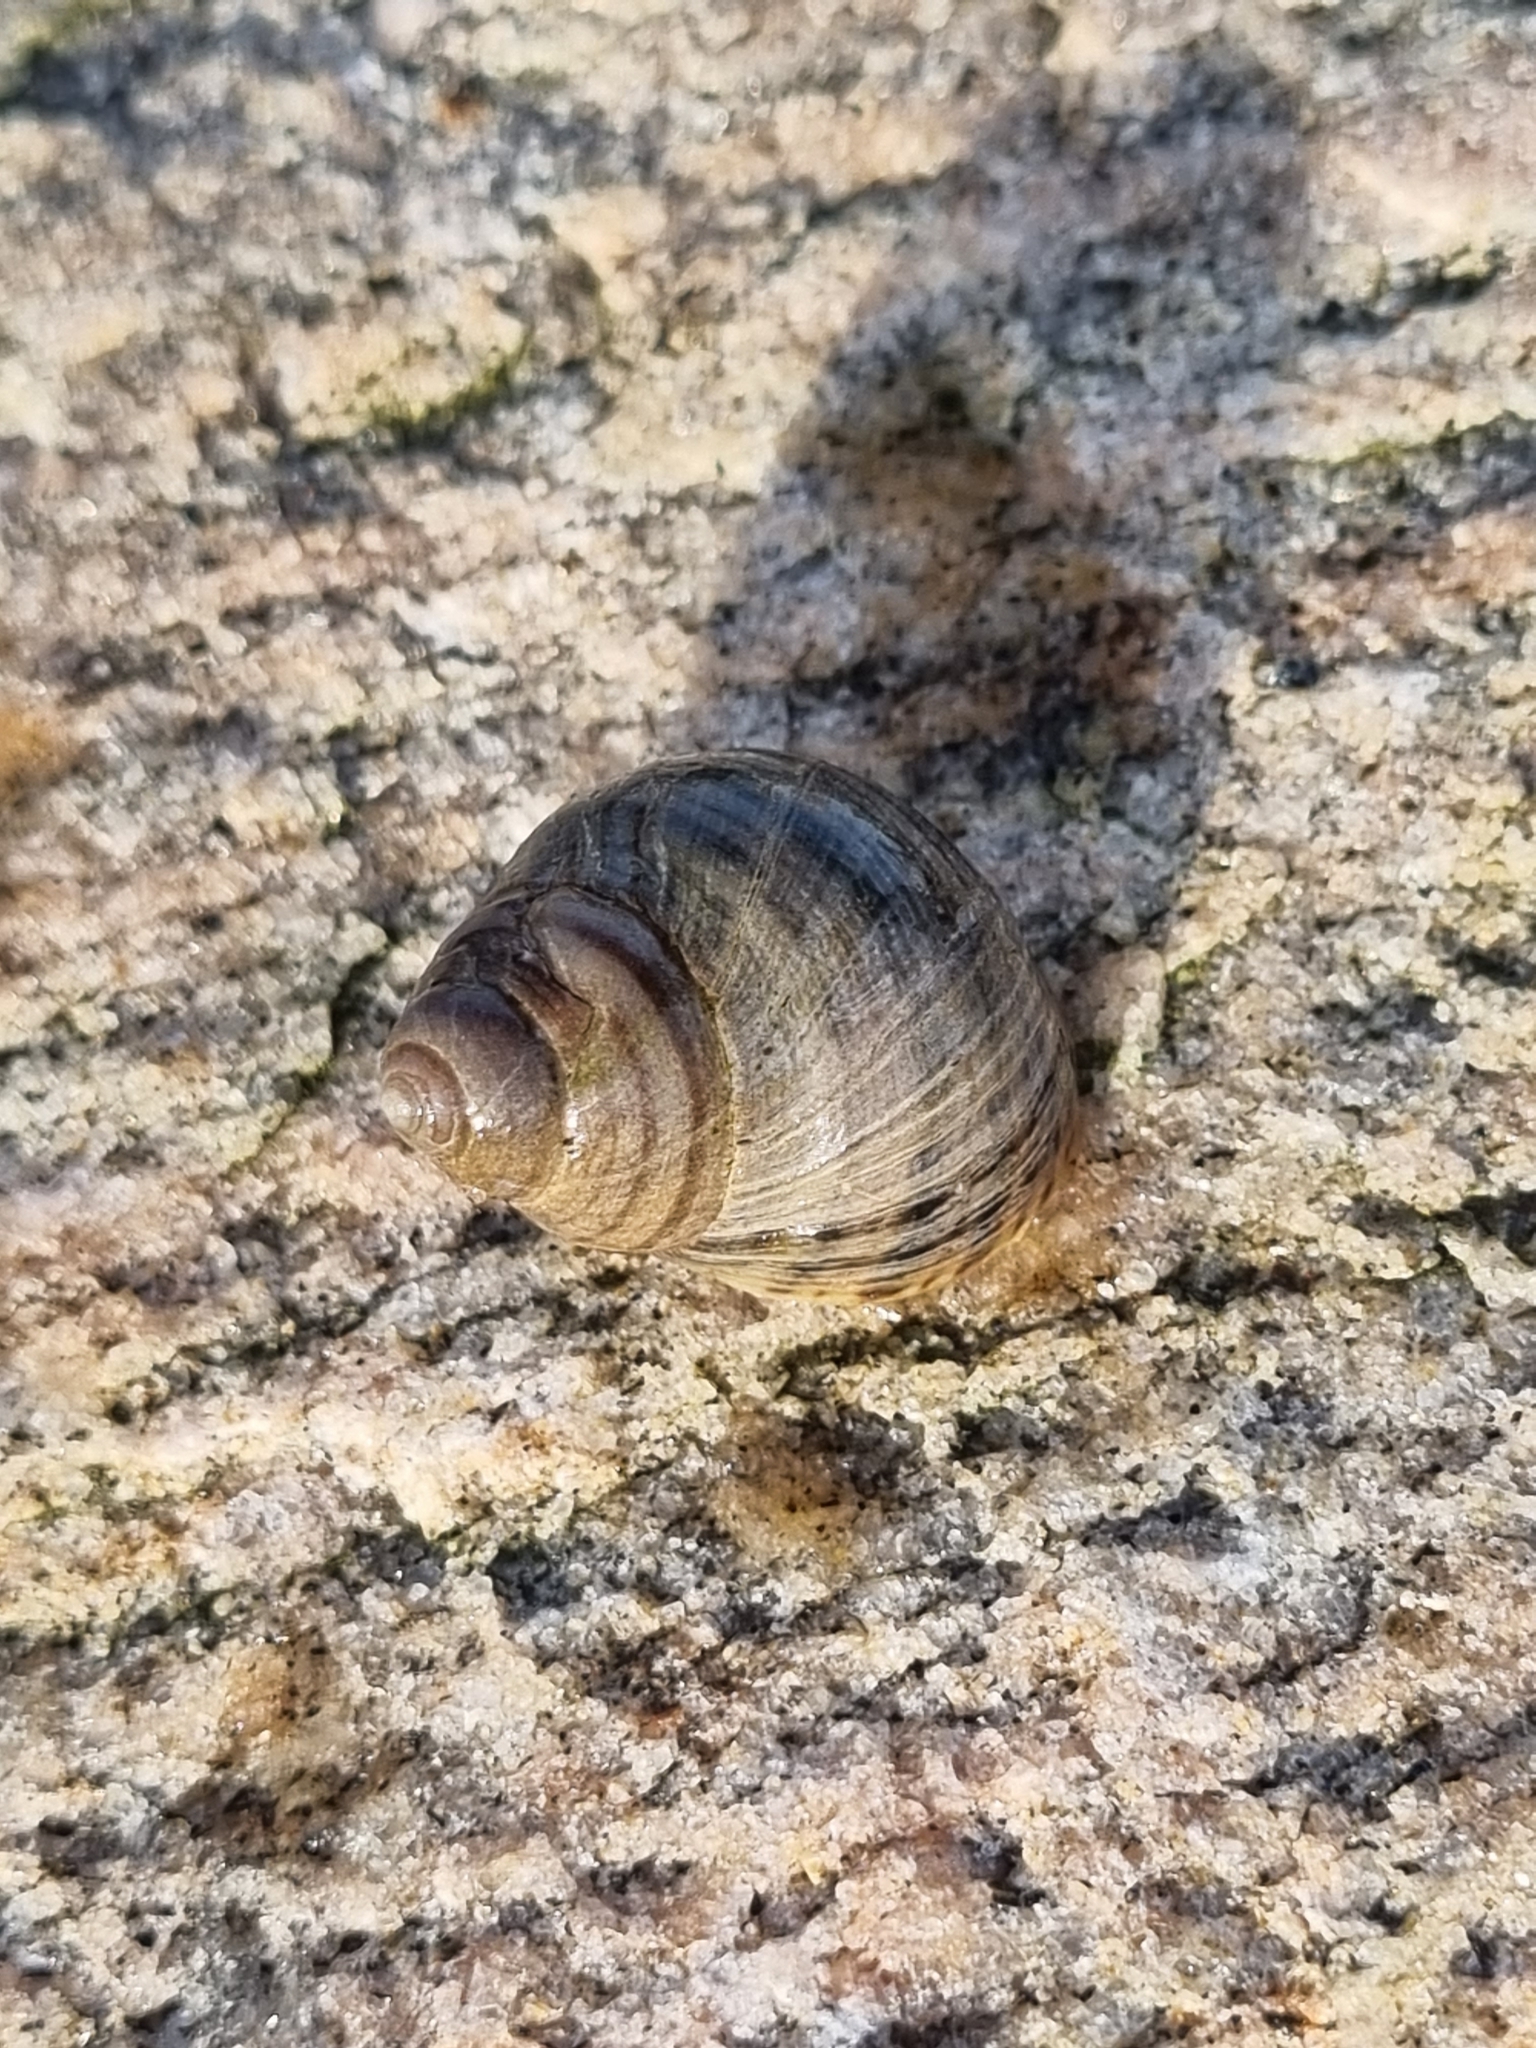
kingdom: Animalia
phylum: Mollusca
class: Gastropoda
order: Littorinimorpha
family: Littorinidae
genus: Littorina
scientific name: Littorina littorea
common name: Common periwinkle
